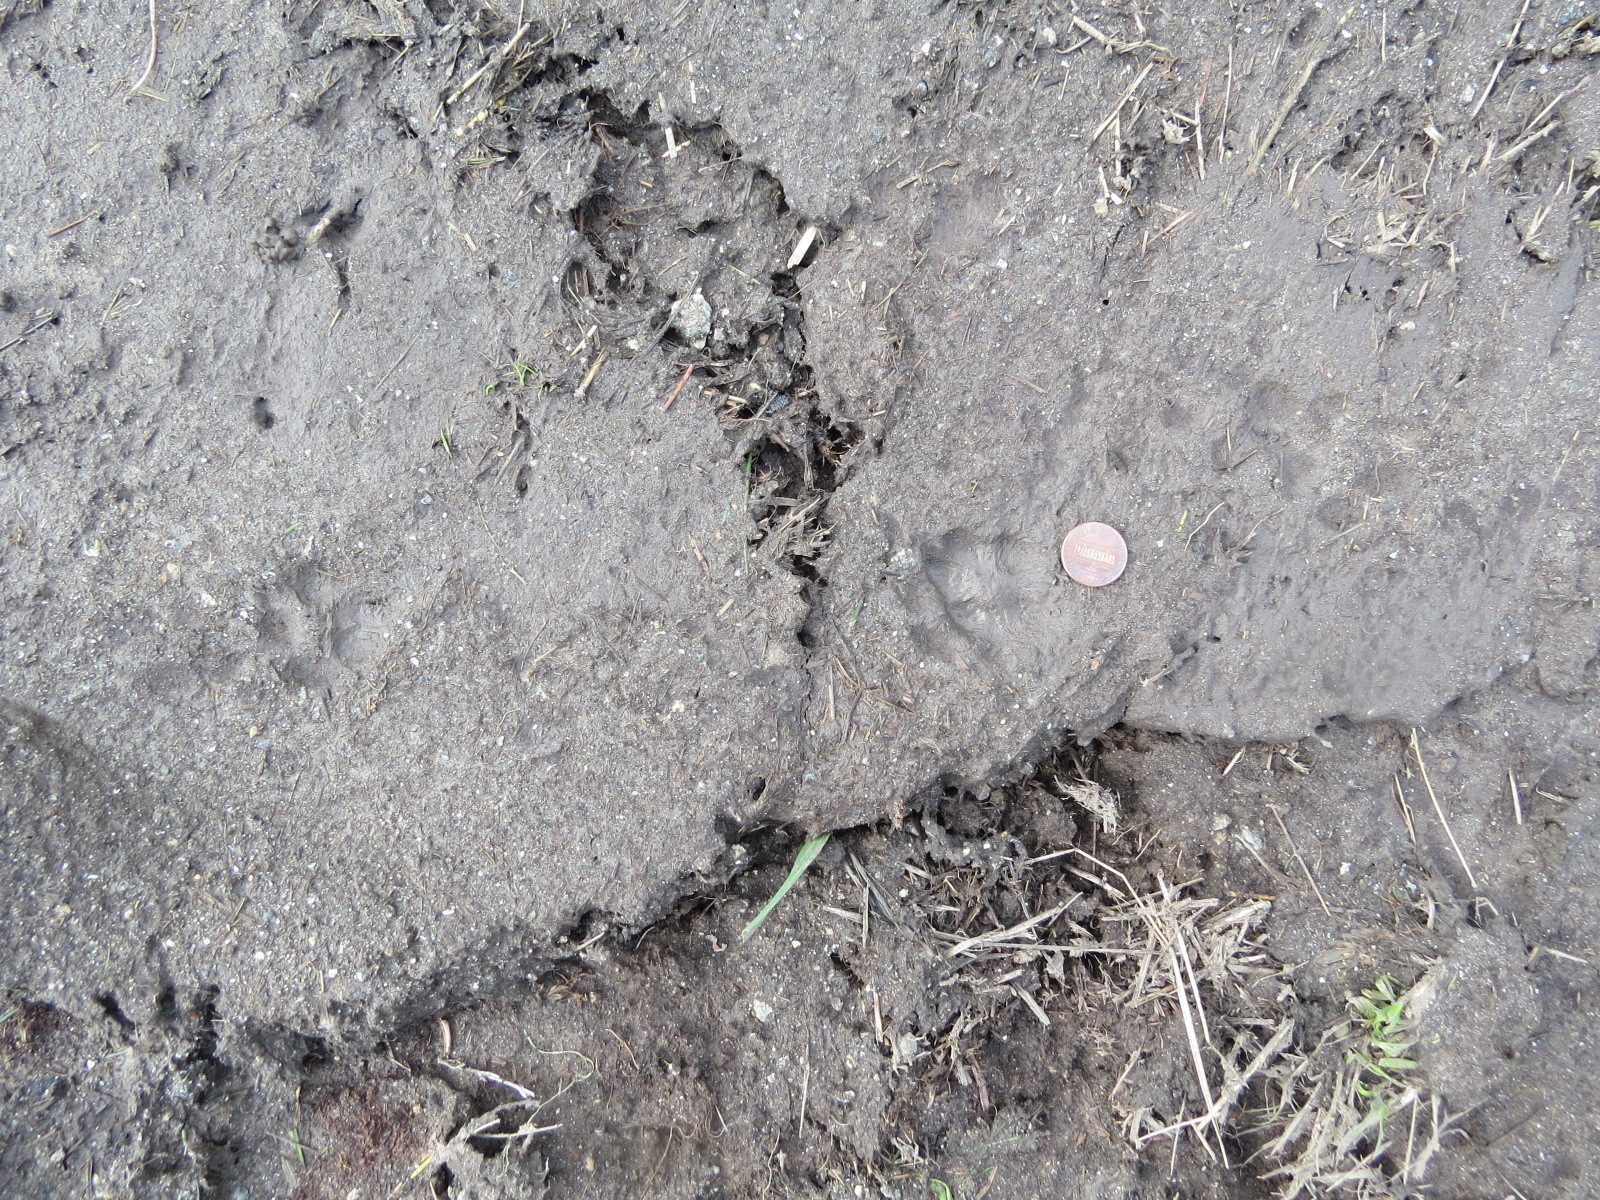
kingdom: Animalia
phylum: Chordata
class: Mammalia
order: Carnivora
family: Canidae
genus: Urocyon
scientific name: Urocyon cinereoargenteus
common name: Gray fox
